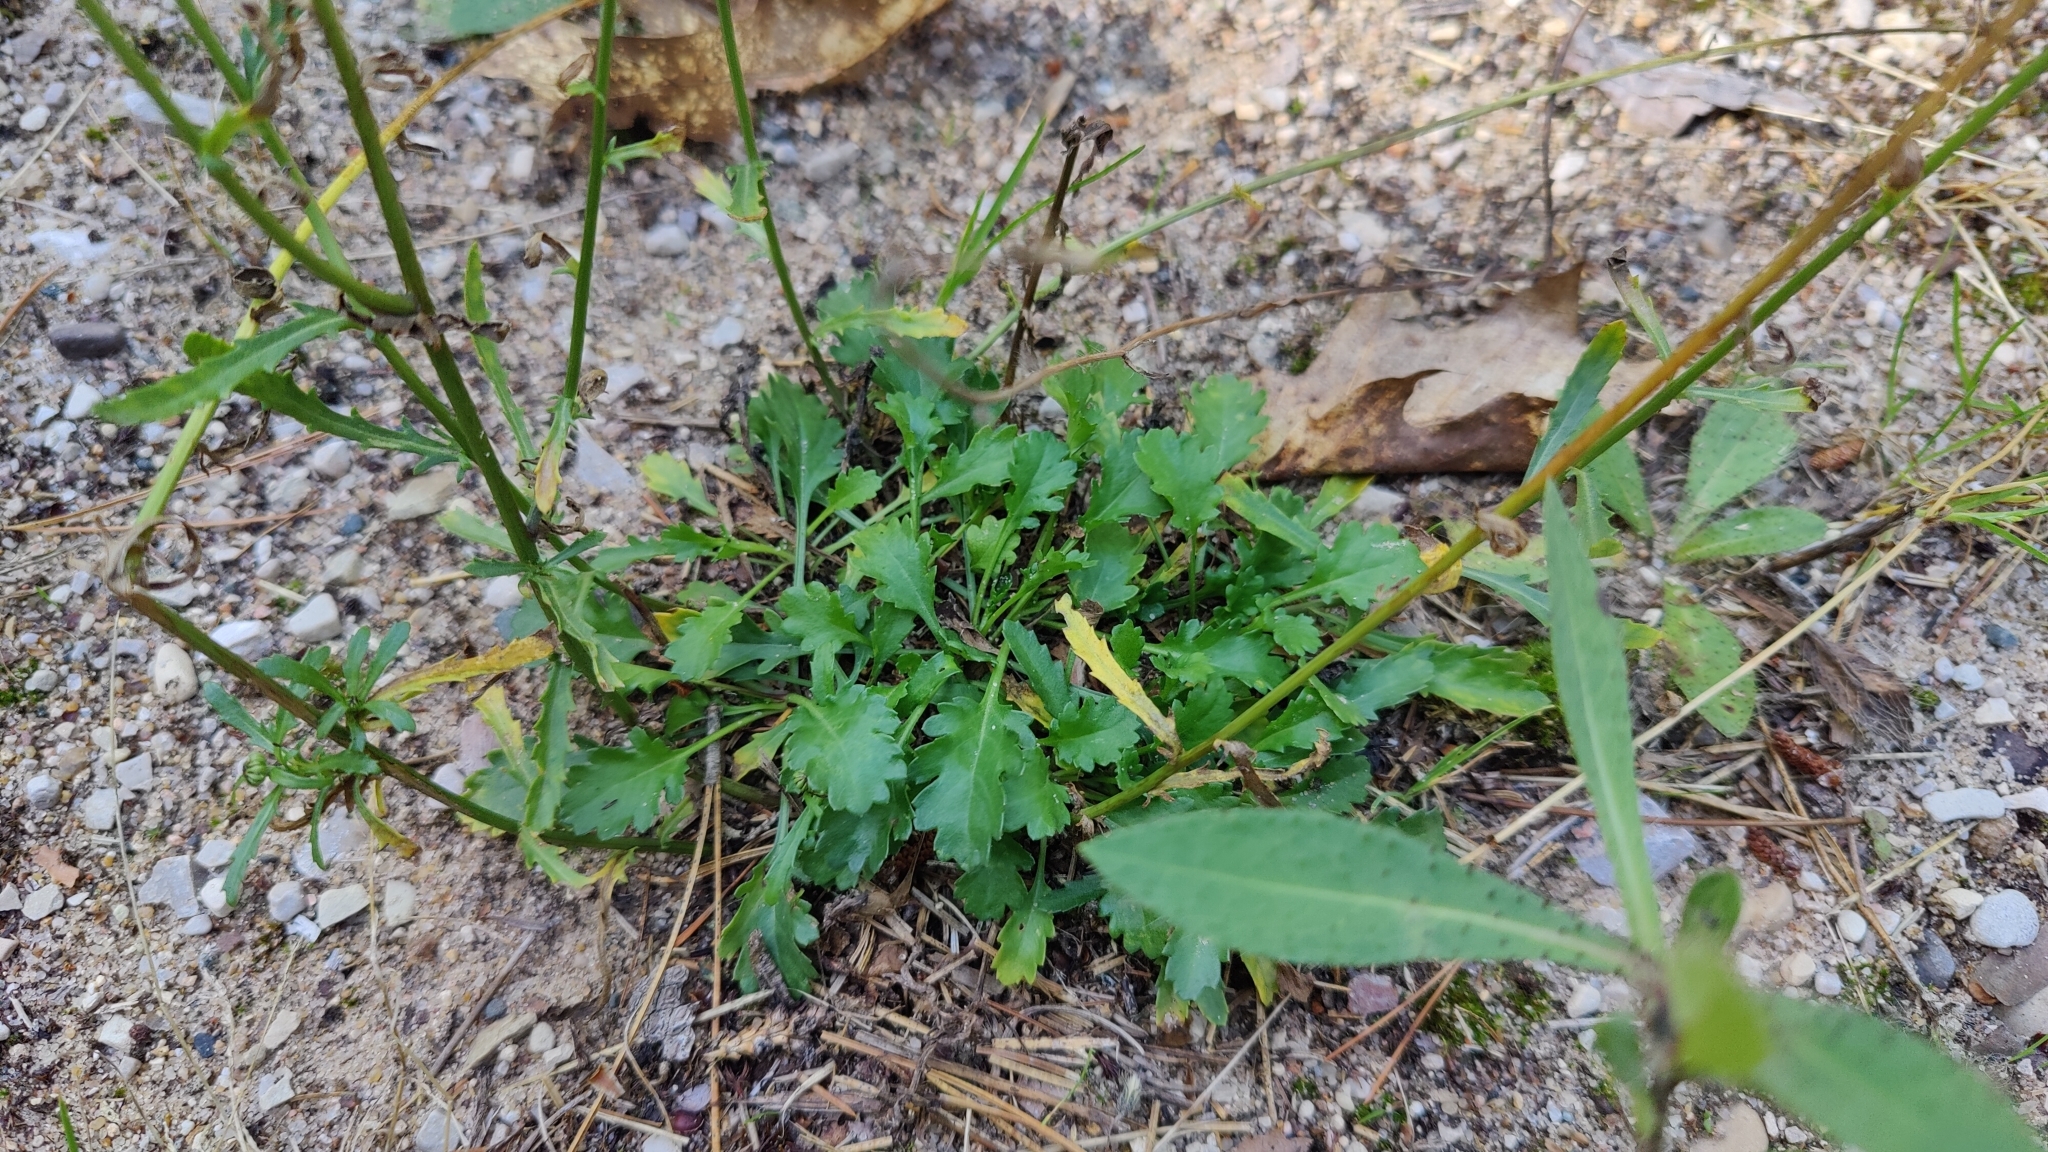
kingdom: Plantae
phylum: Tracheophyta
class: Magnoliopsida
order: Asterales
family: Asteraceae
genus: Leucanthemum
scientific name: Leucanthemum vulgare
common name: Oxeye daisy
